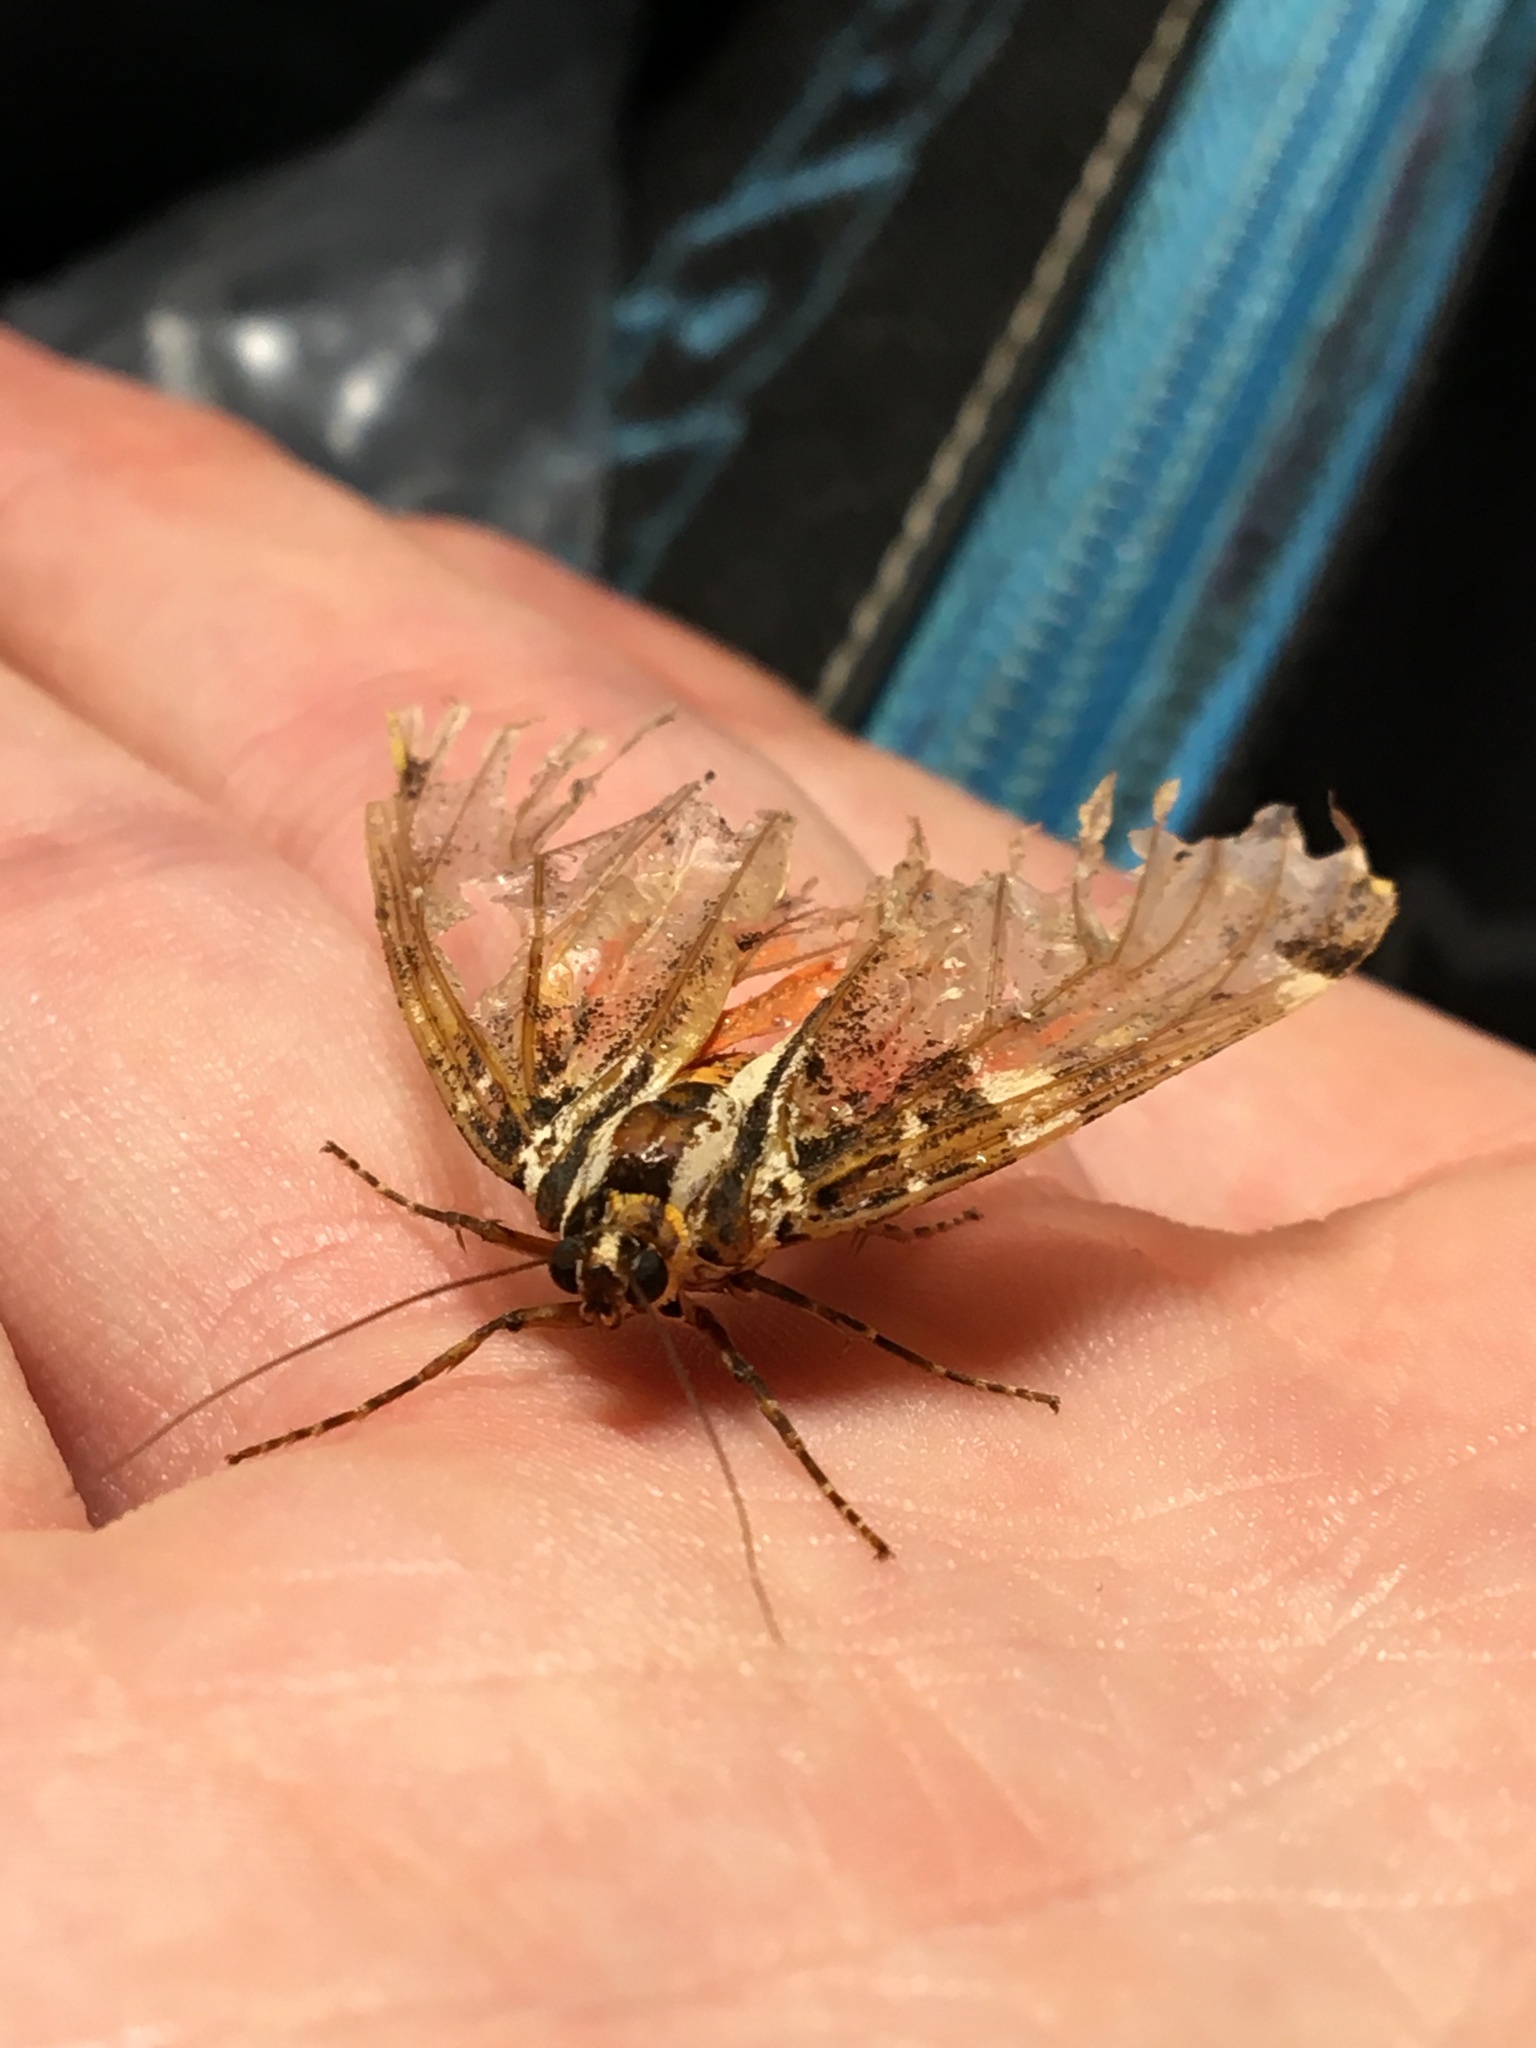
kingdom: Animalia
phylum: Arthropoda
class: Insecta
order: Lepidoptera
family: Erebidae
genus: Euplagia
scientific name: Euplagia quadripunctaria
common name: Jersey tiger
